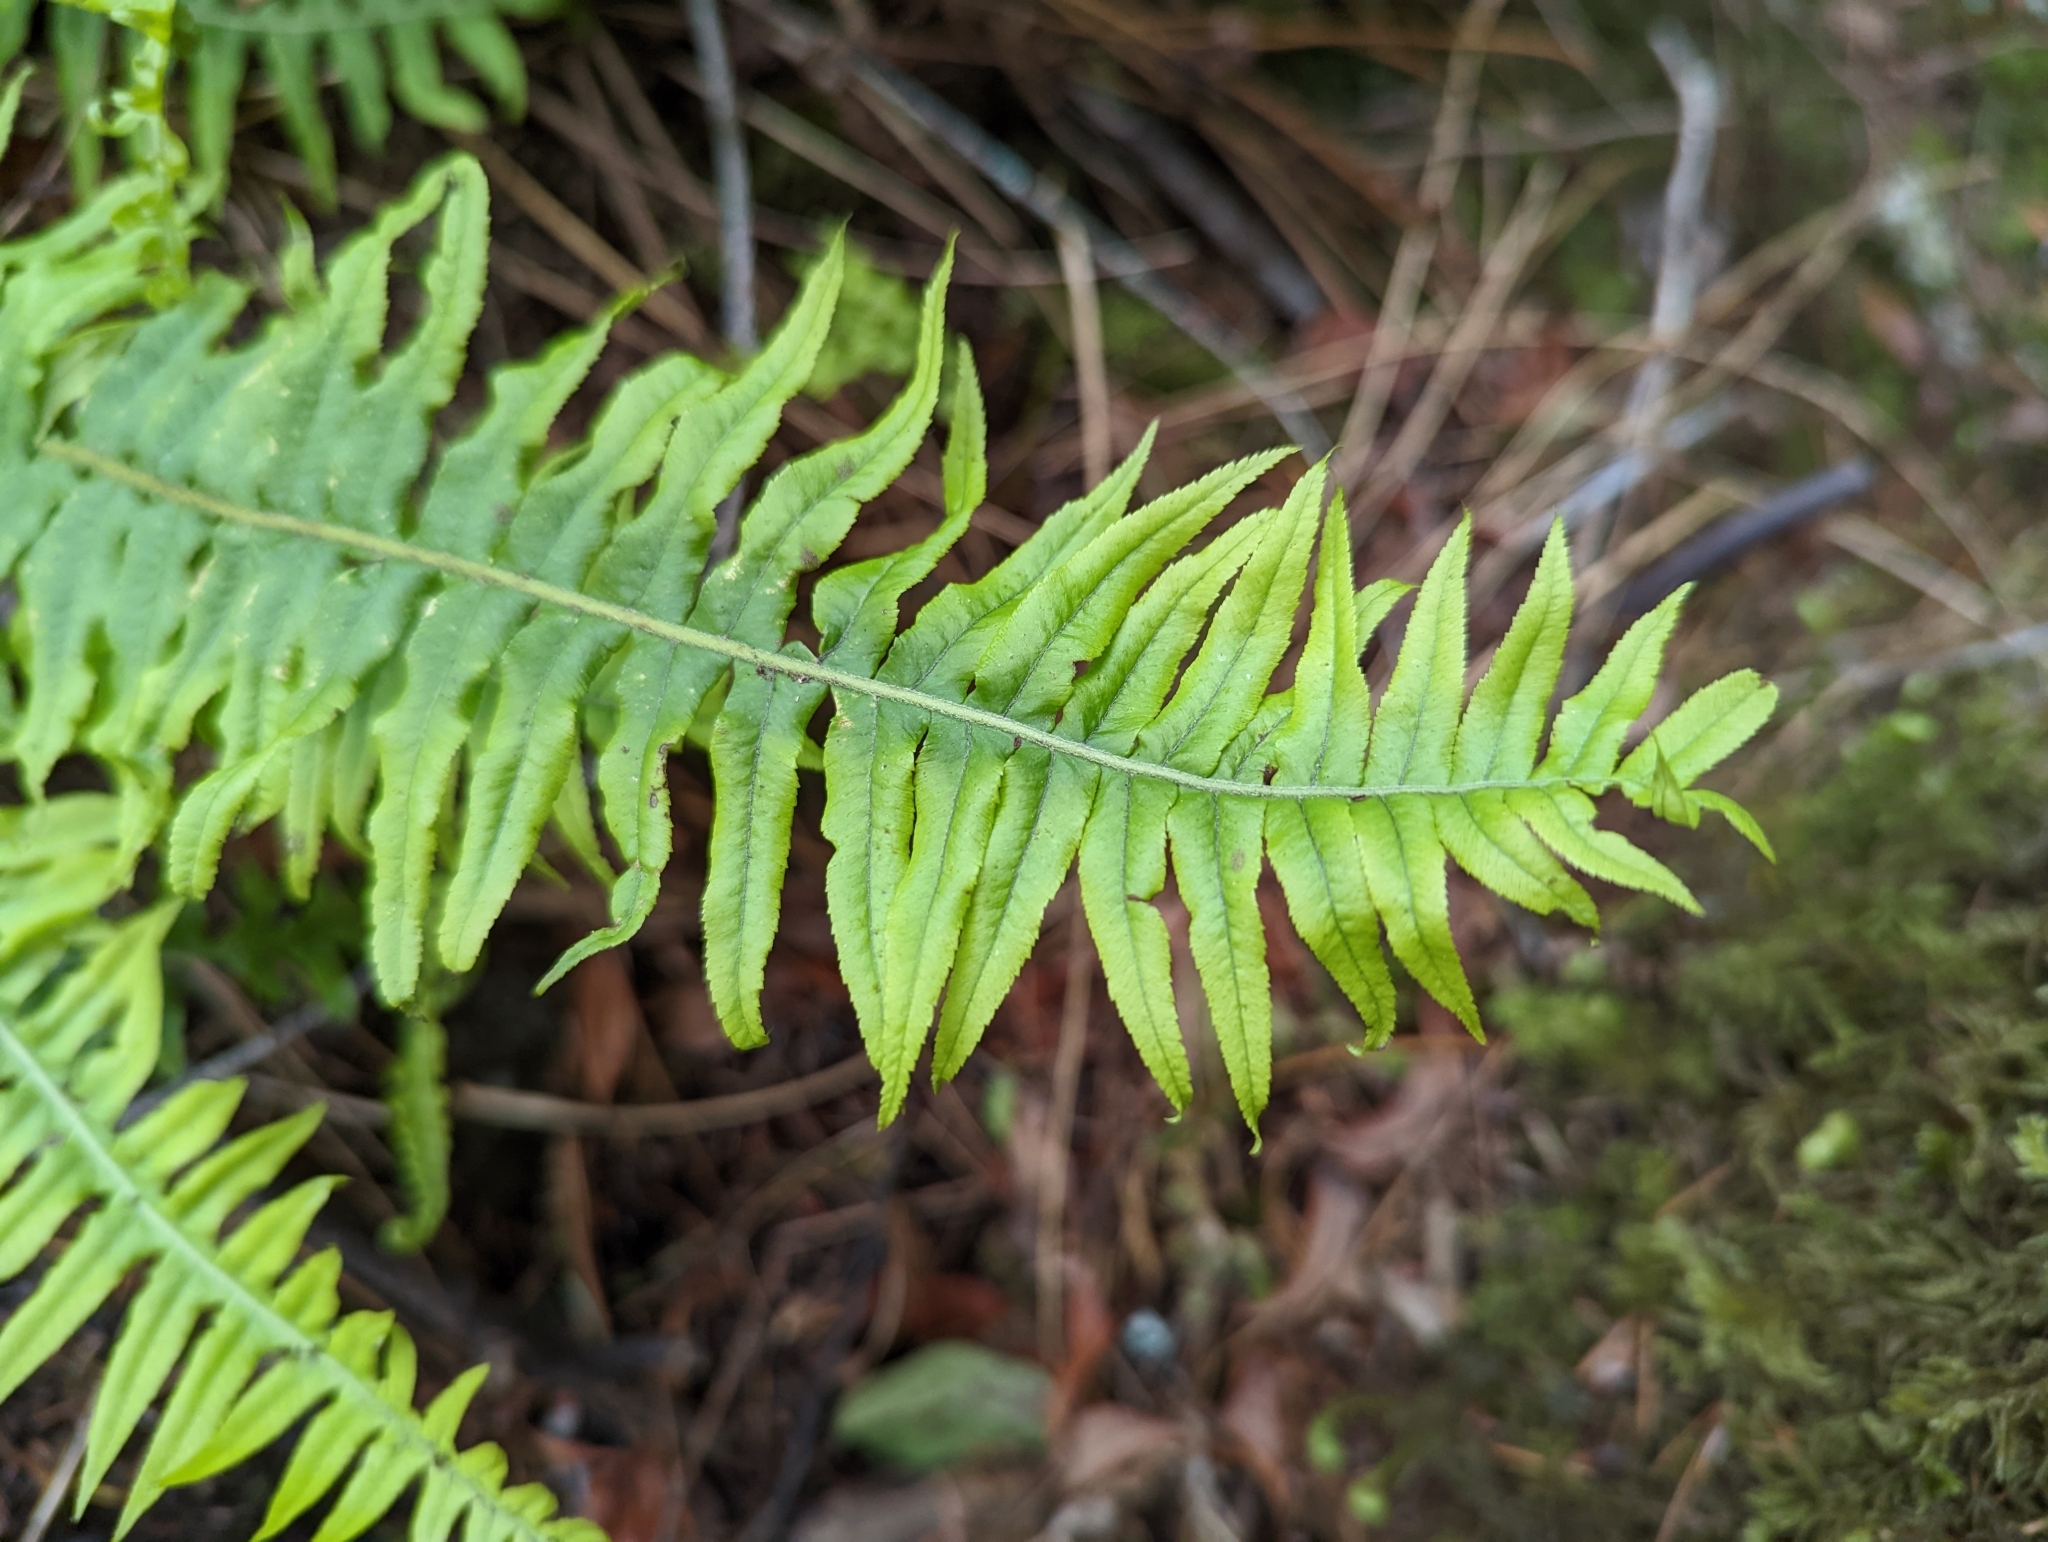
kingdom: Plantae
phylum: Tracheophyta
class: Polypodiopsida
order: Polypodiales
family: Polypodiaceae
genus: Polypodium
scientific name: Polypodium glycyrrhiza
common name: Licorice fern
